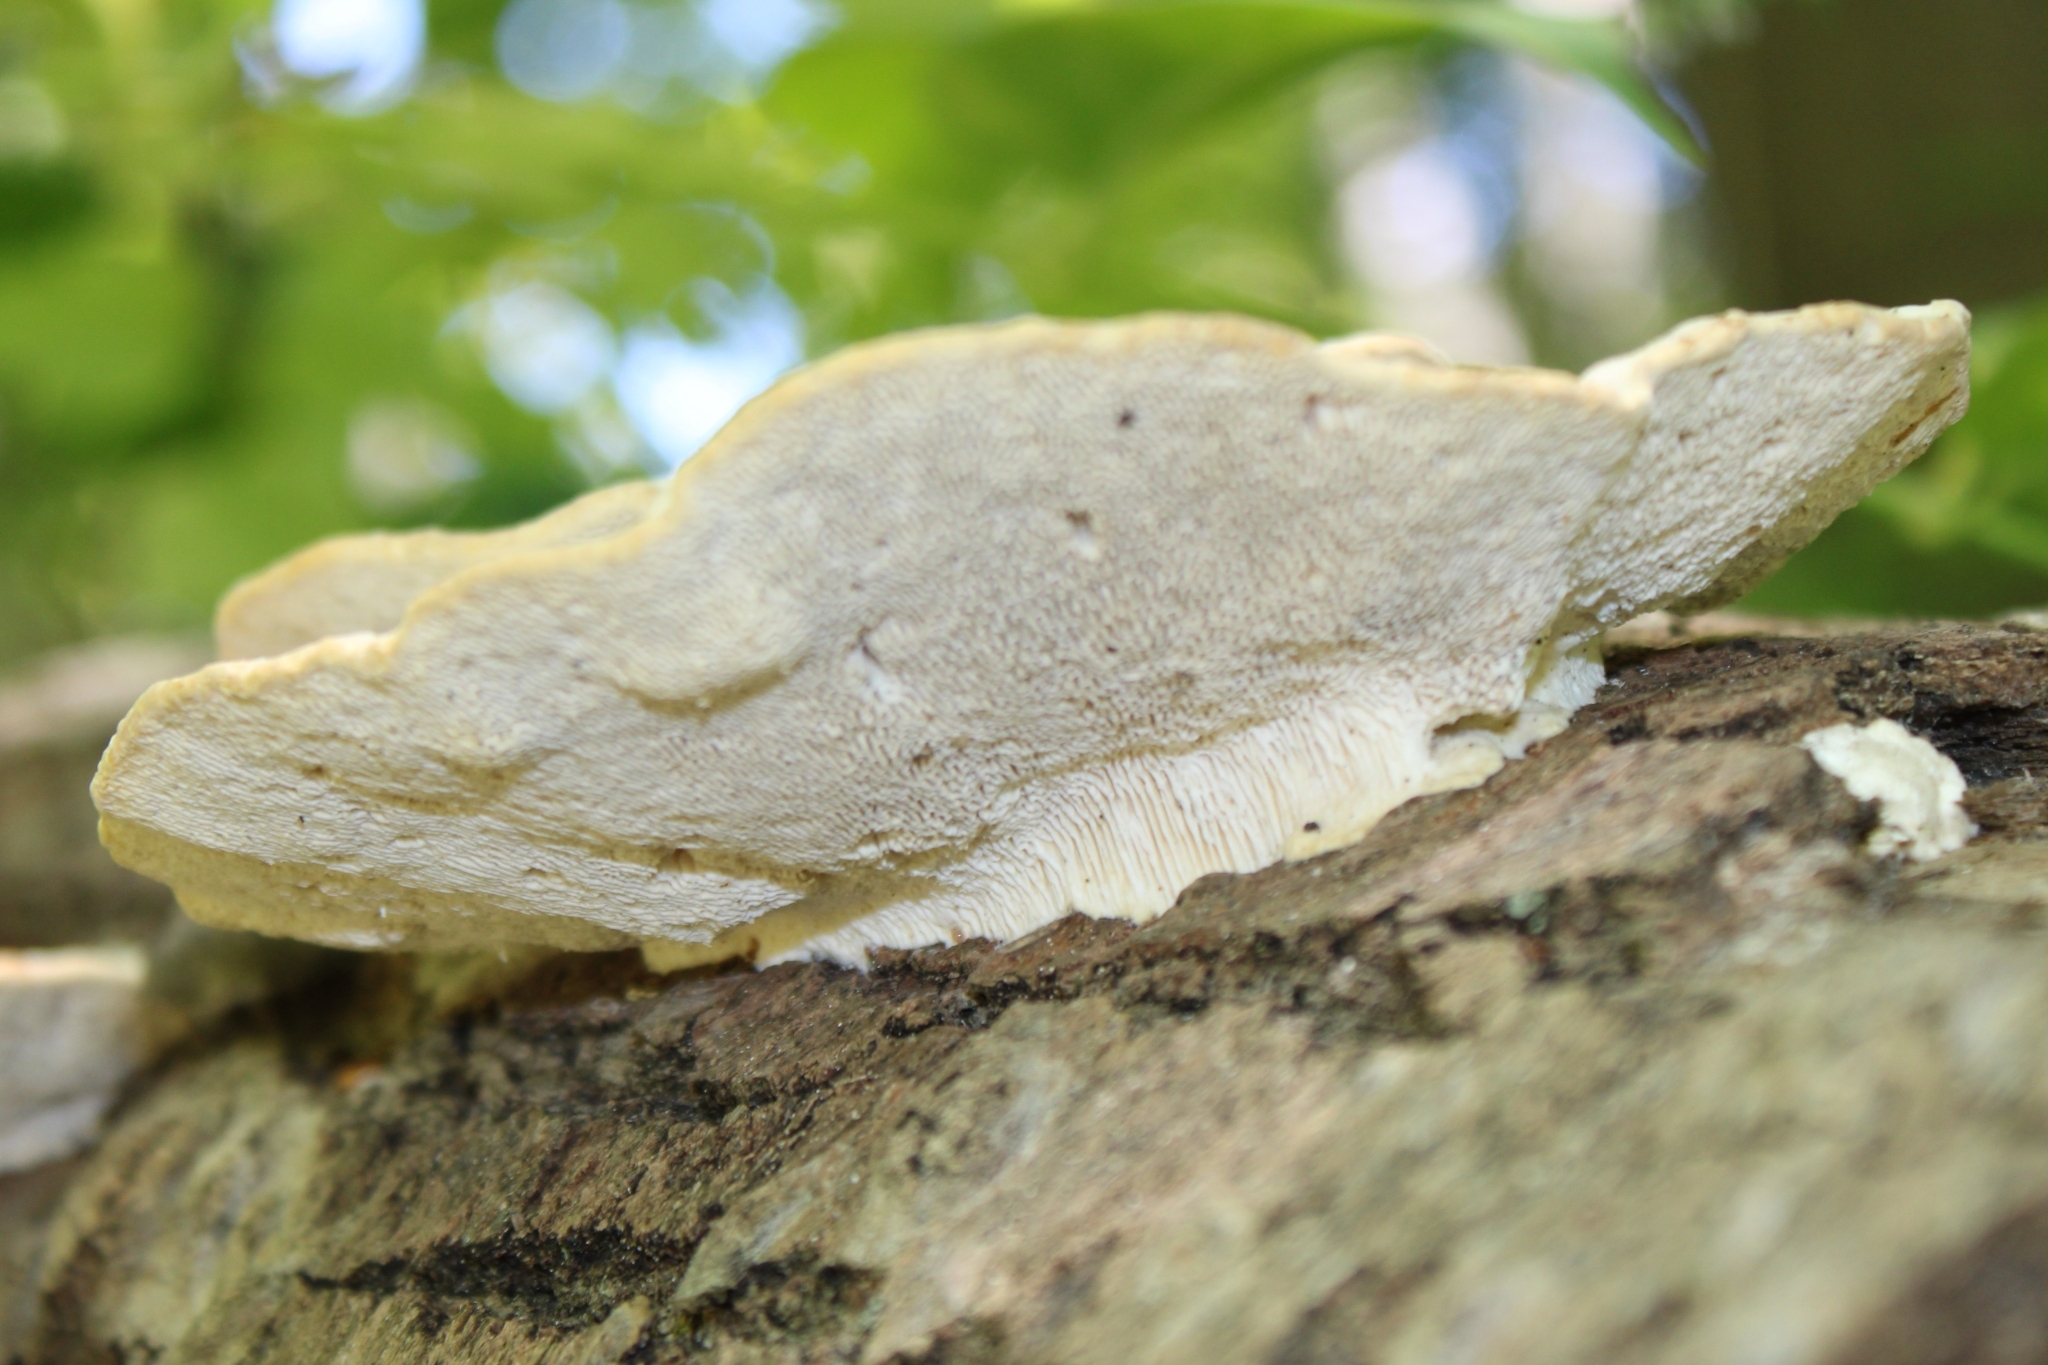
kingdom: Fungi
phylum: Basidiomycota
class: Agaricomycetes
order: Polyporales
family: Polyporaceae
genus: Trametes
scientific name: Trametes gibbosa
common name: Lumpy bracket
